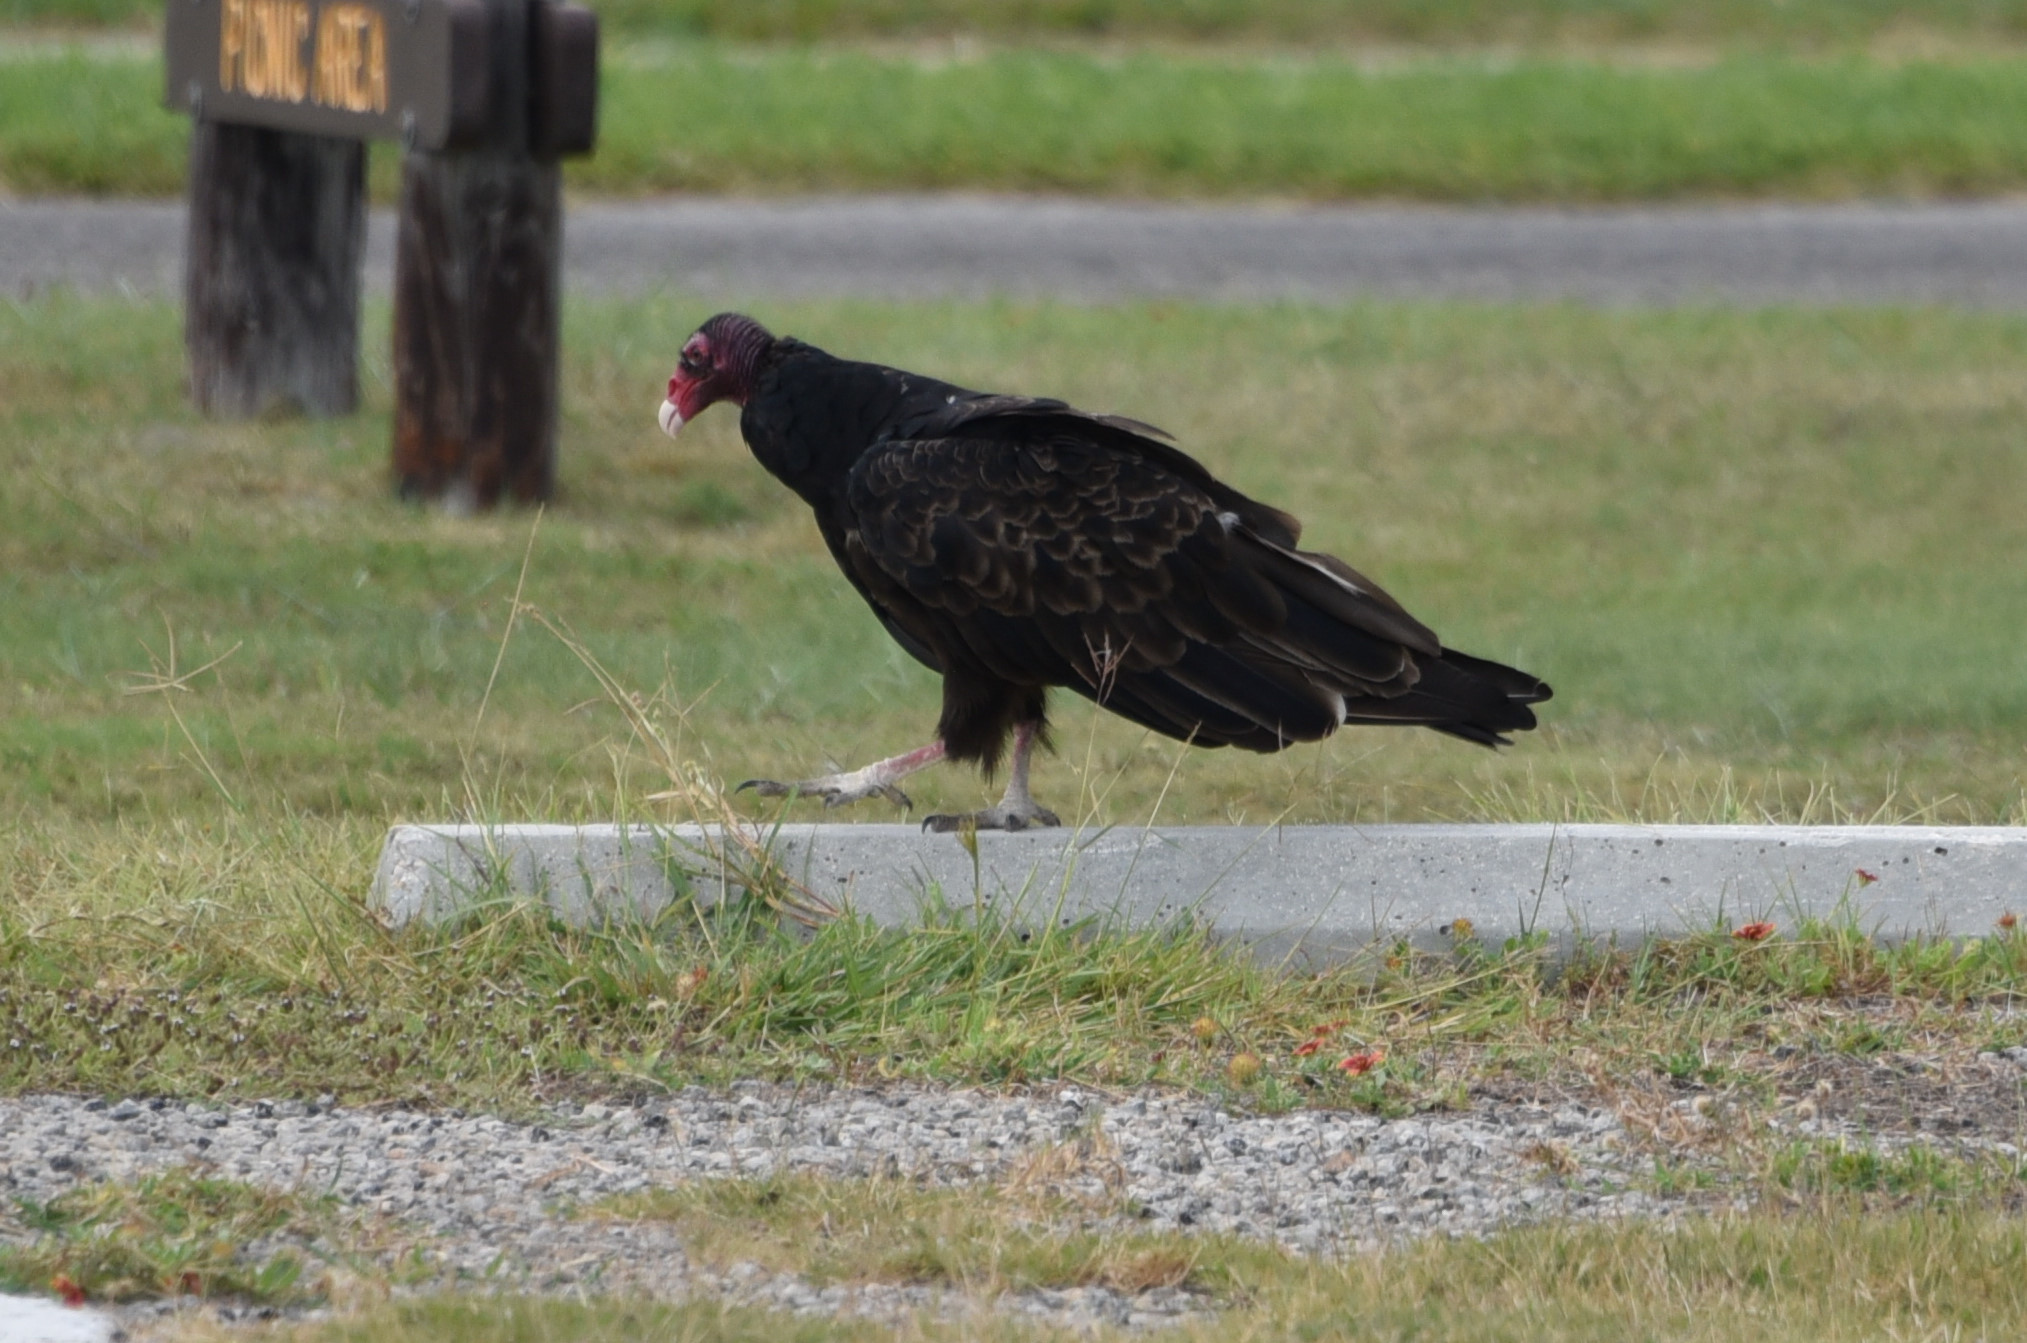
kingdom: Animalia
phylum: Chordata
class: Aves
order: Accipitriformes
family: Cathartidae
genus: Cathartes
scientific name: Cathartes aura
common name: Turkey vulture
